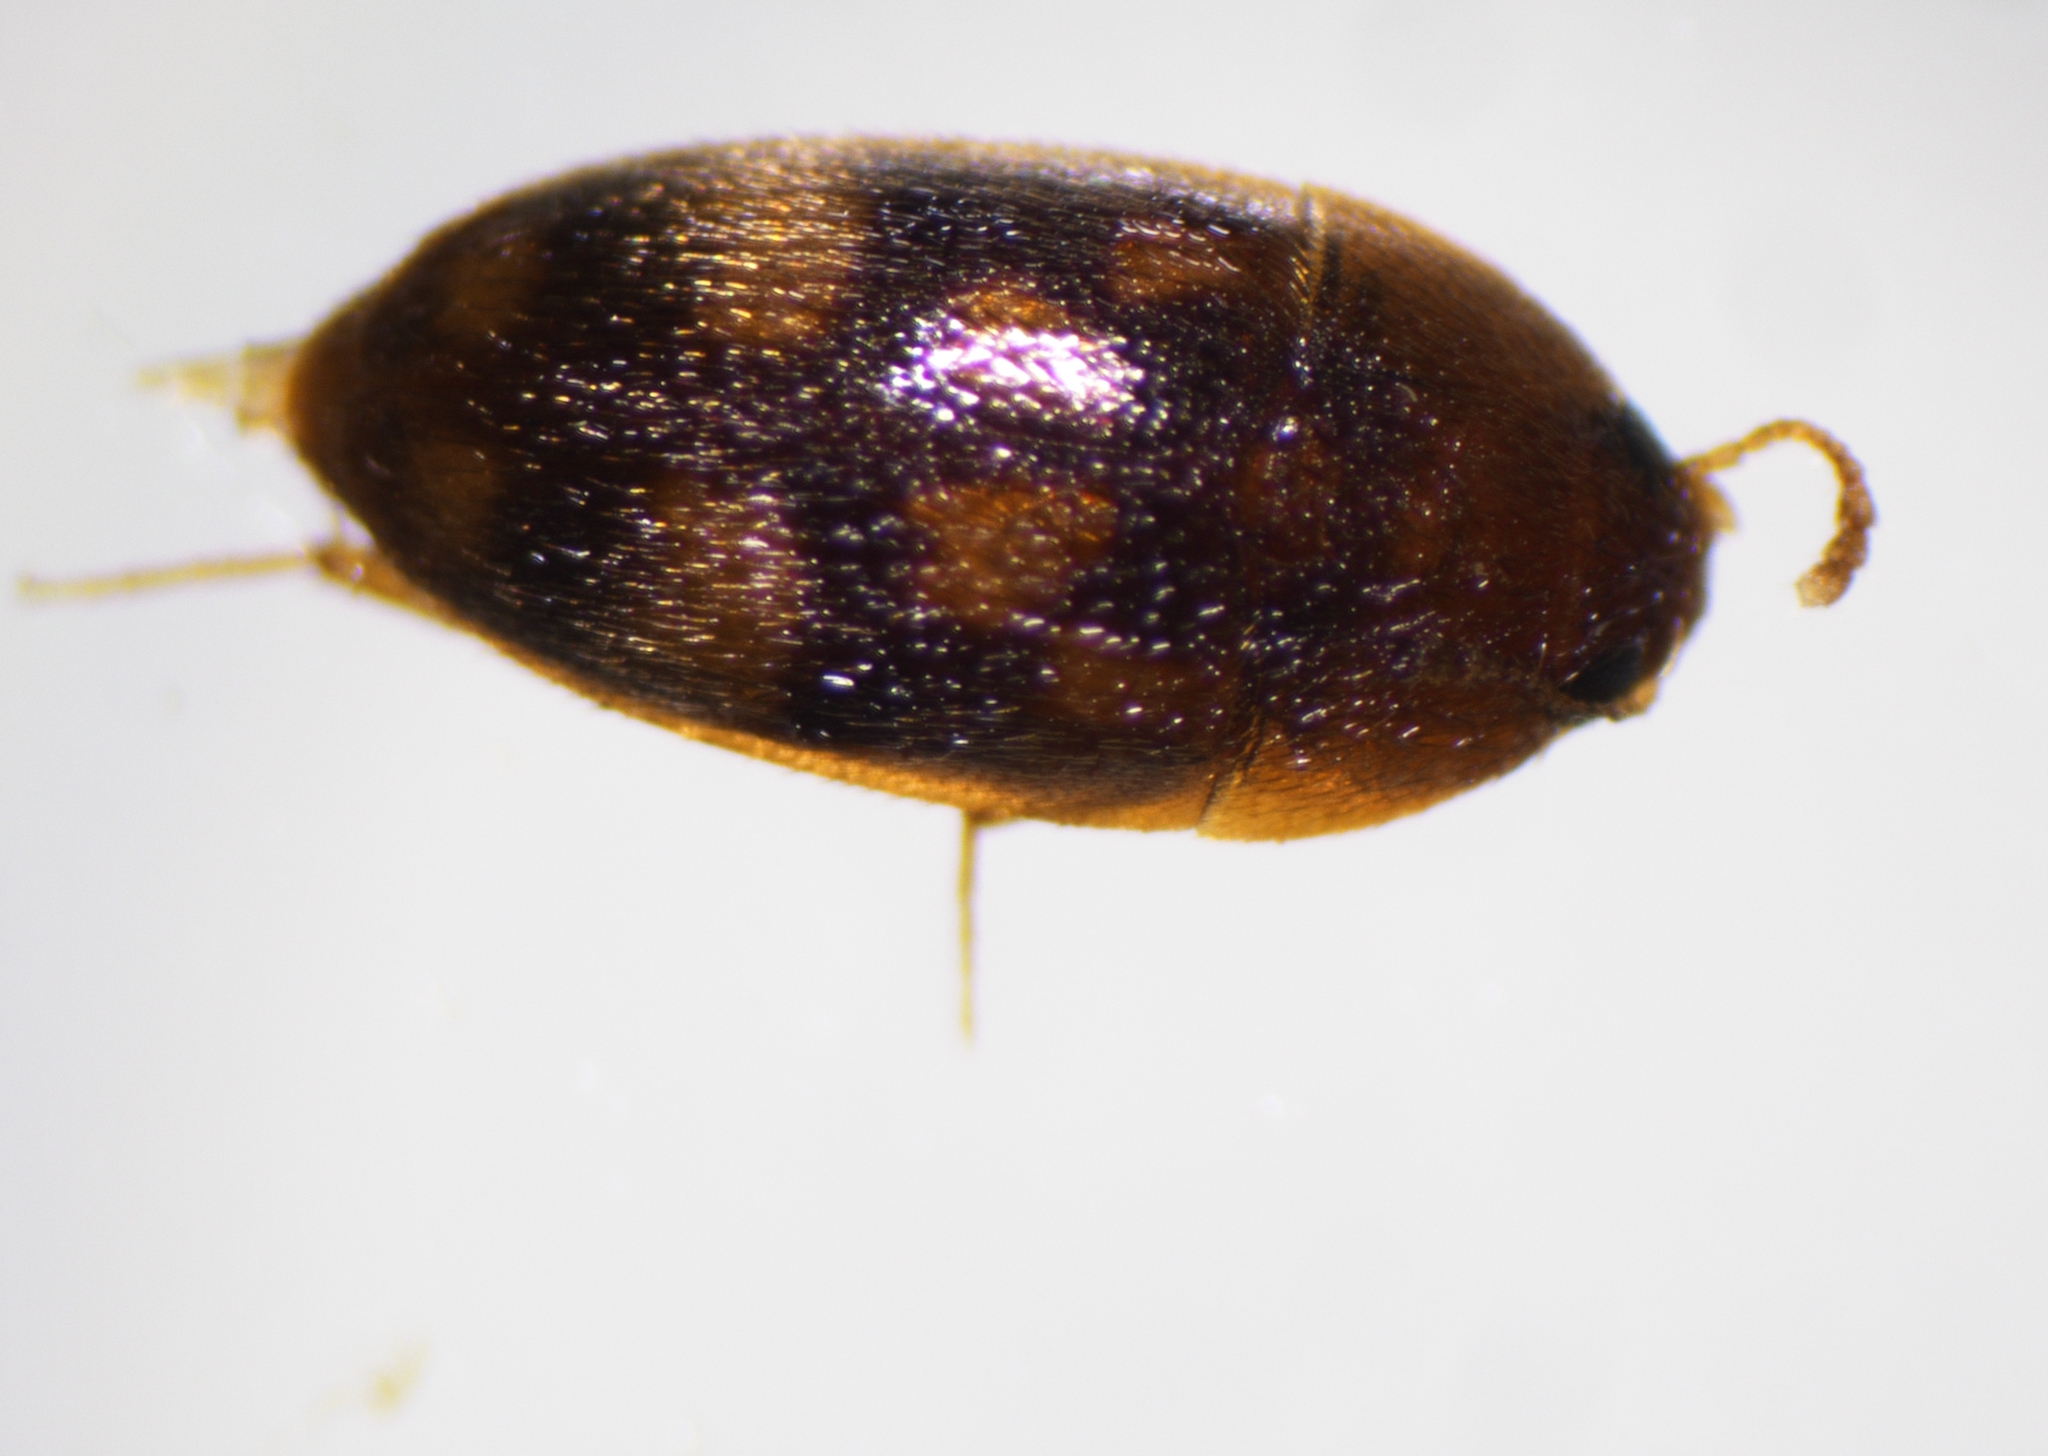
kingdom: Animalia
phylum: Arthropoda
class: Insecta
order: Coleoptera
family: Mycetophagidae
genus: Litargus
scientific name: Litargus vestitus
